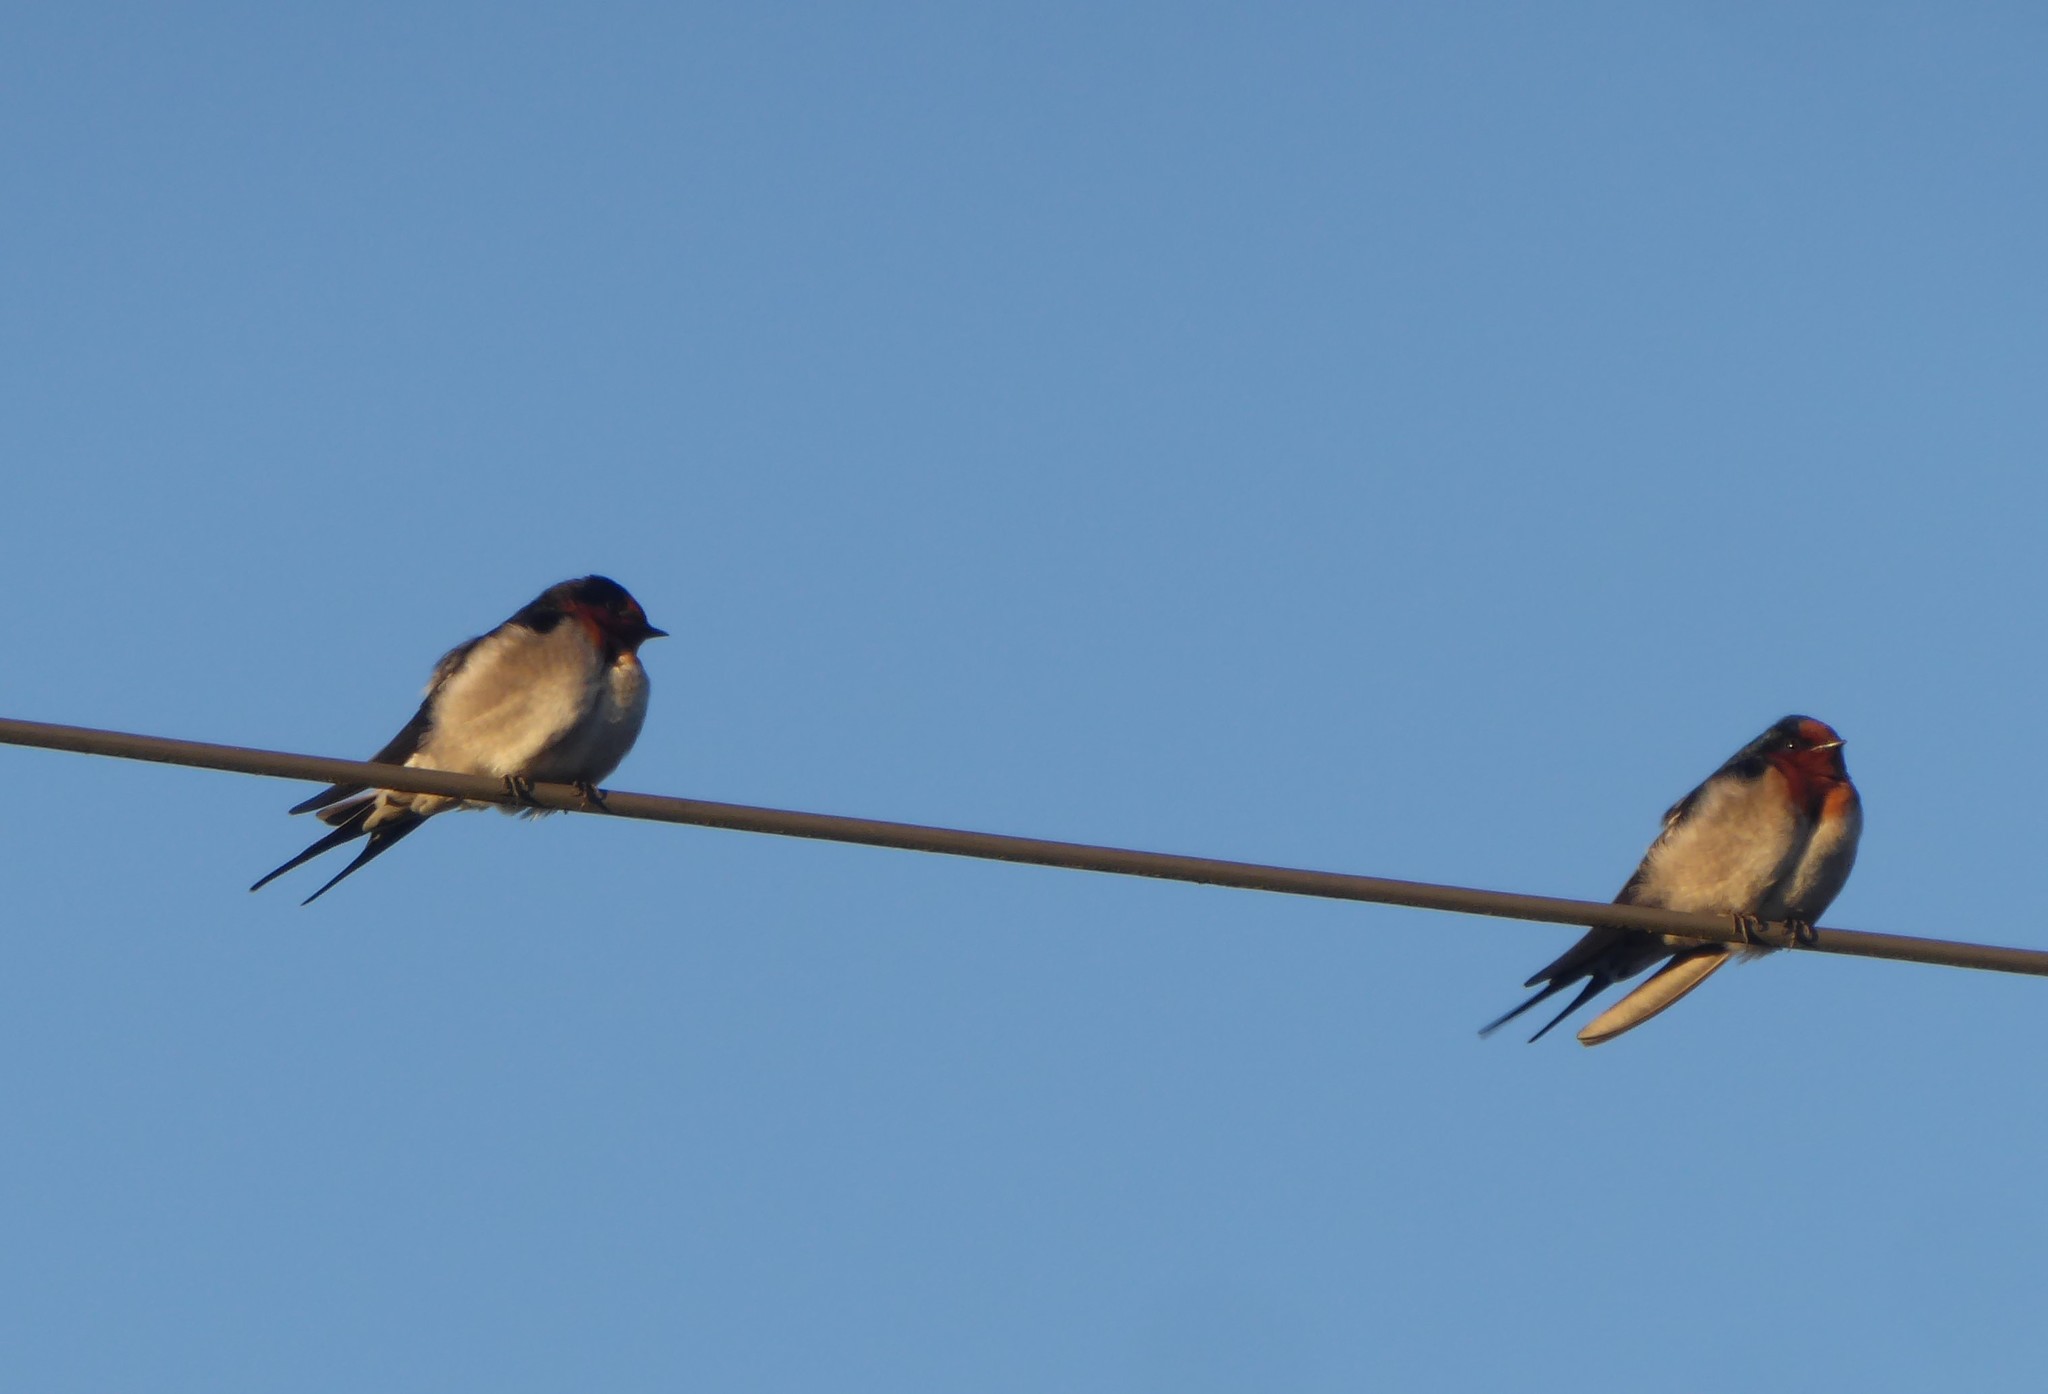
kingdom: Animalia
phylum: Chordata
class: Aves
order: Passeriformes
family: Hirundinidae
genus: Hirundo
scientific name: Hirundo neoxena
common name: Welcome swallow
